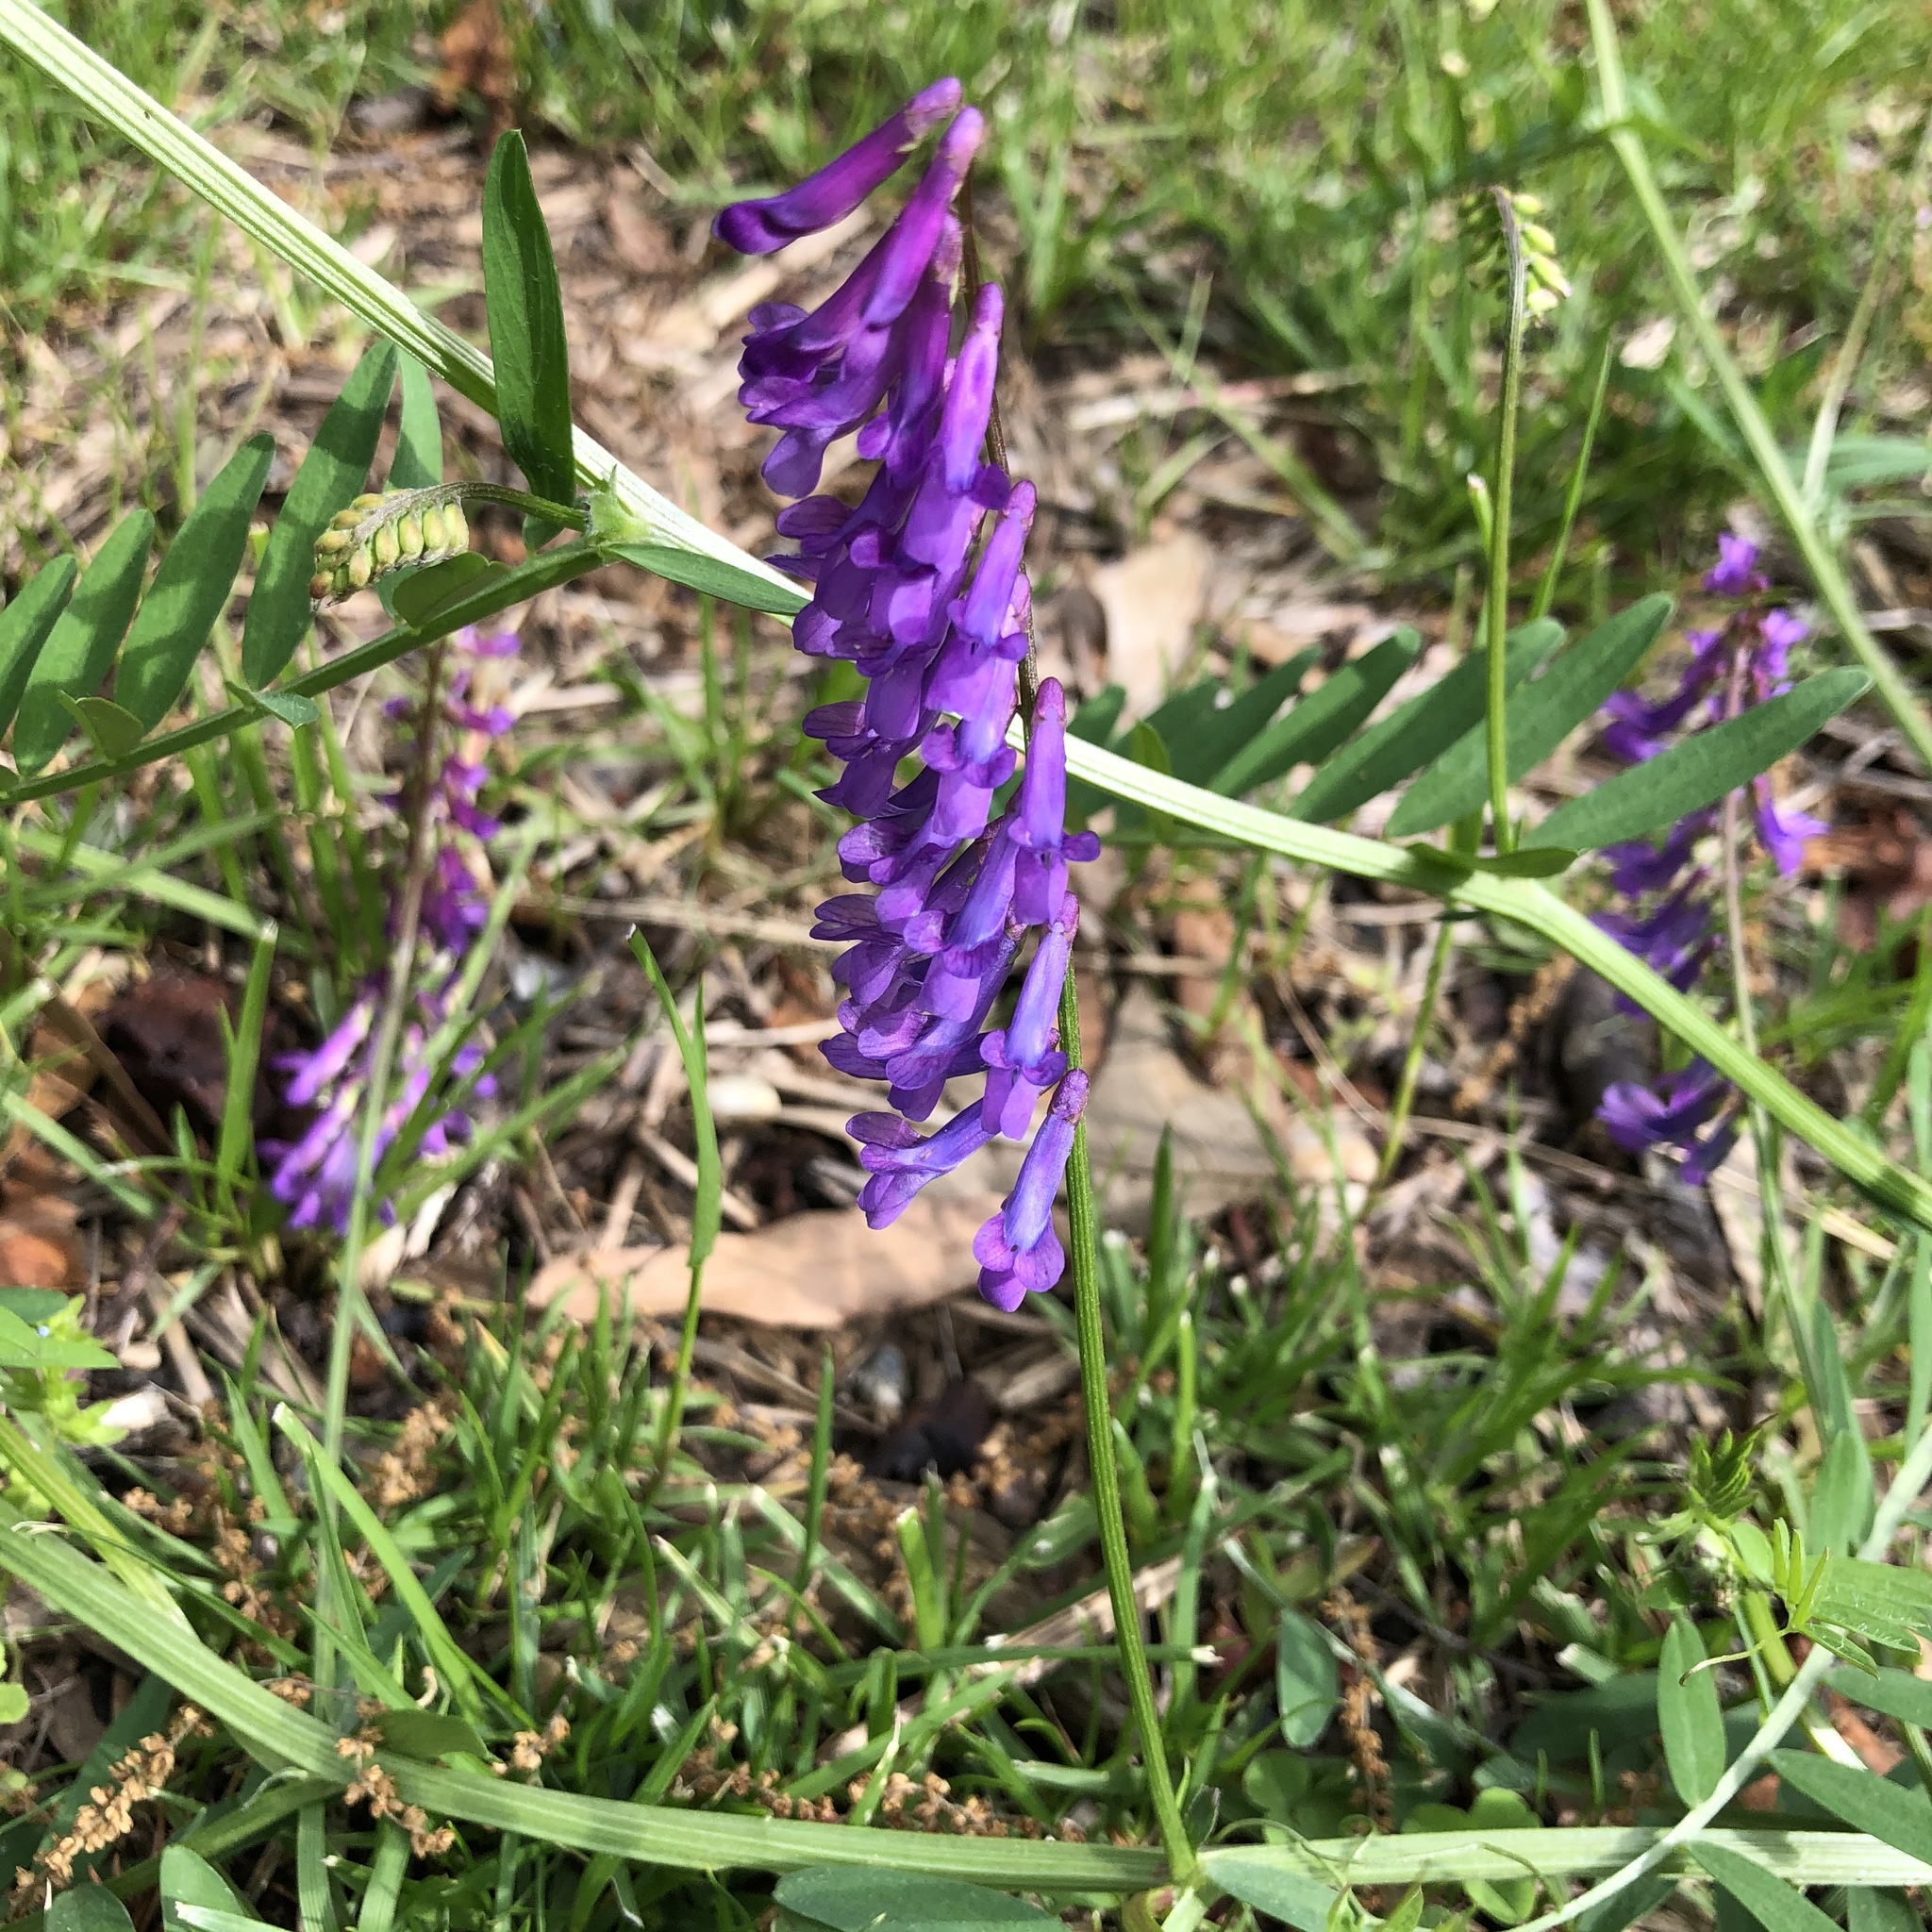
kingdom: Plantae
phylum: Tracheophyta
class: Magnoliopsida
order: Fabales
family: Fabaceae
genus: Vicia
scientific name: Vicia villosa
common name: Fodder vetch
